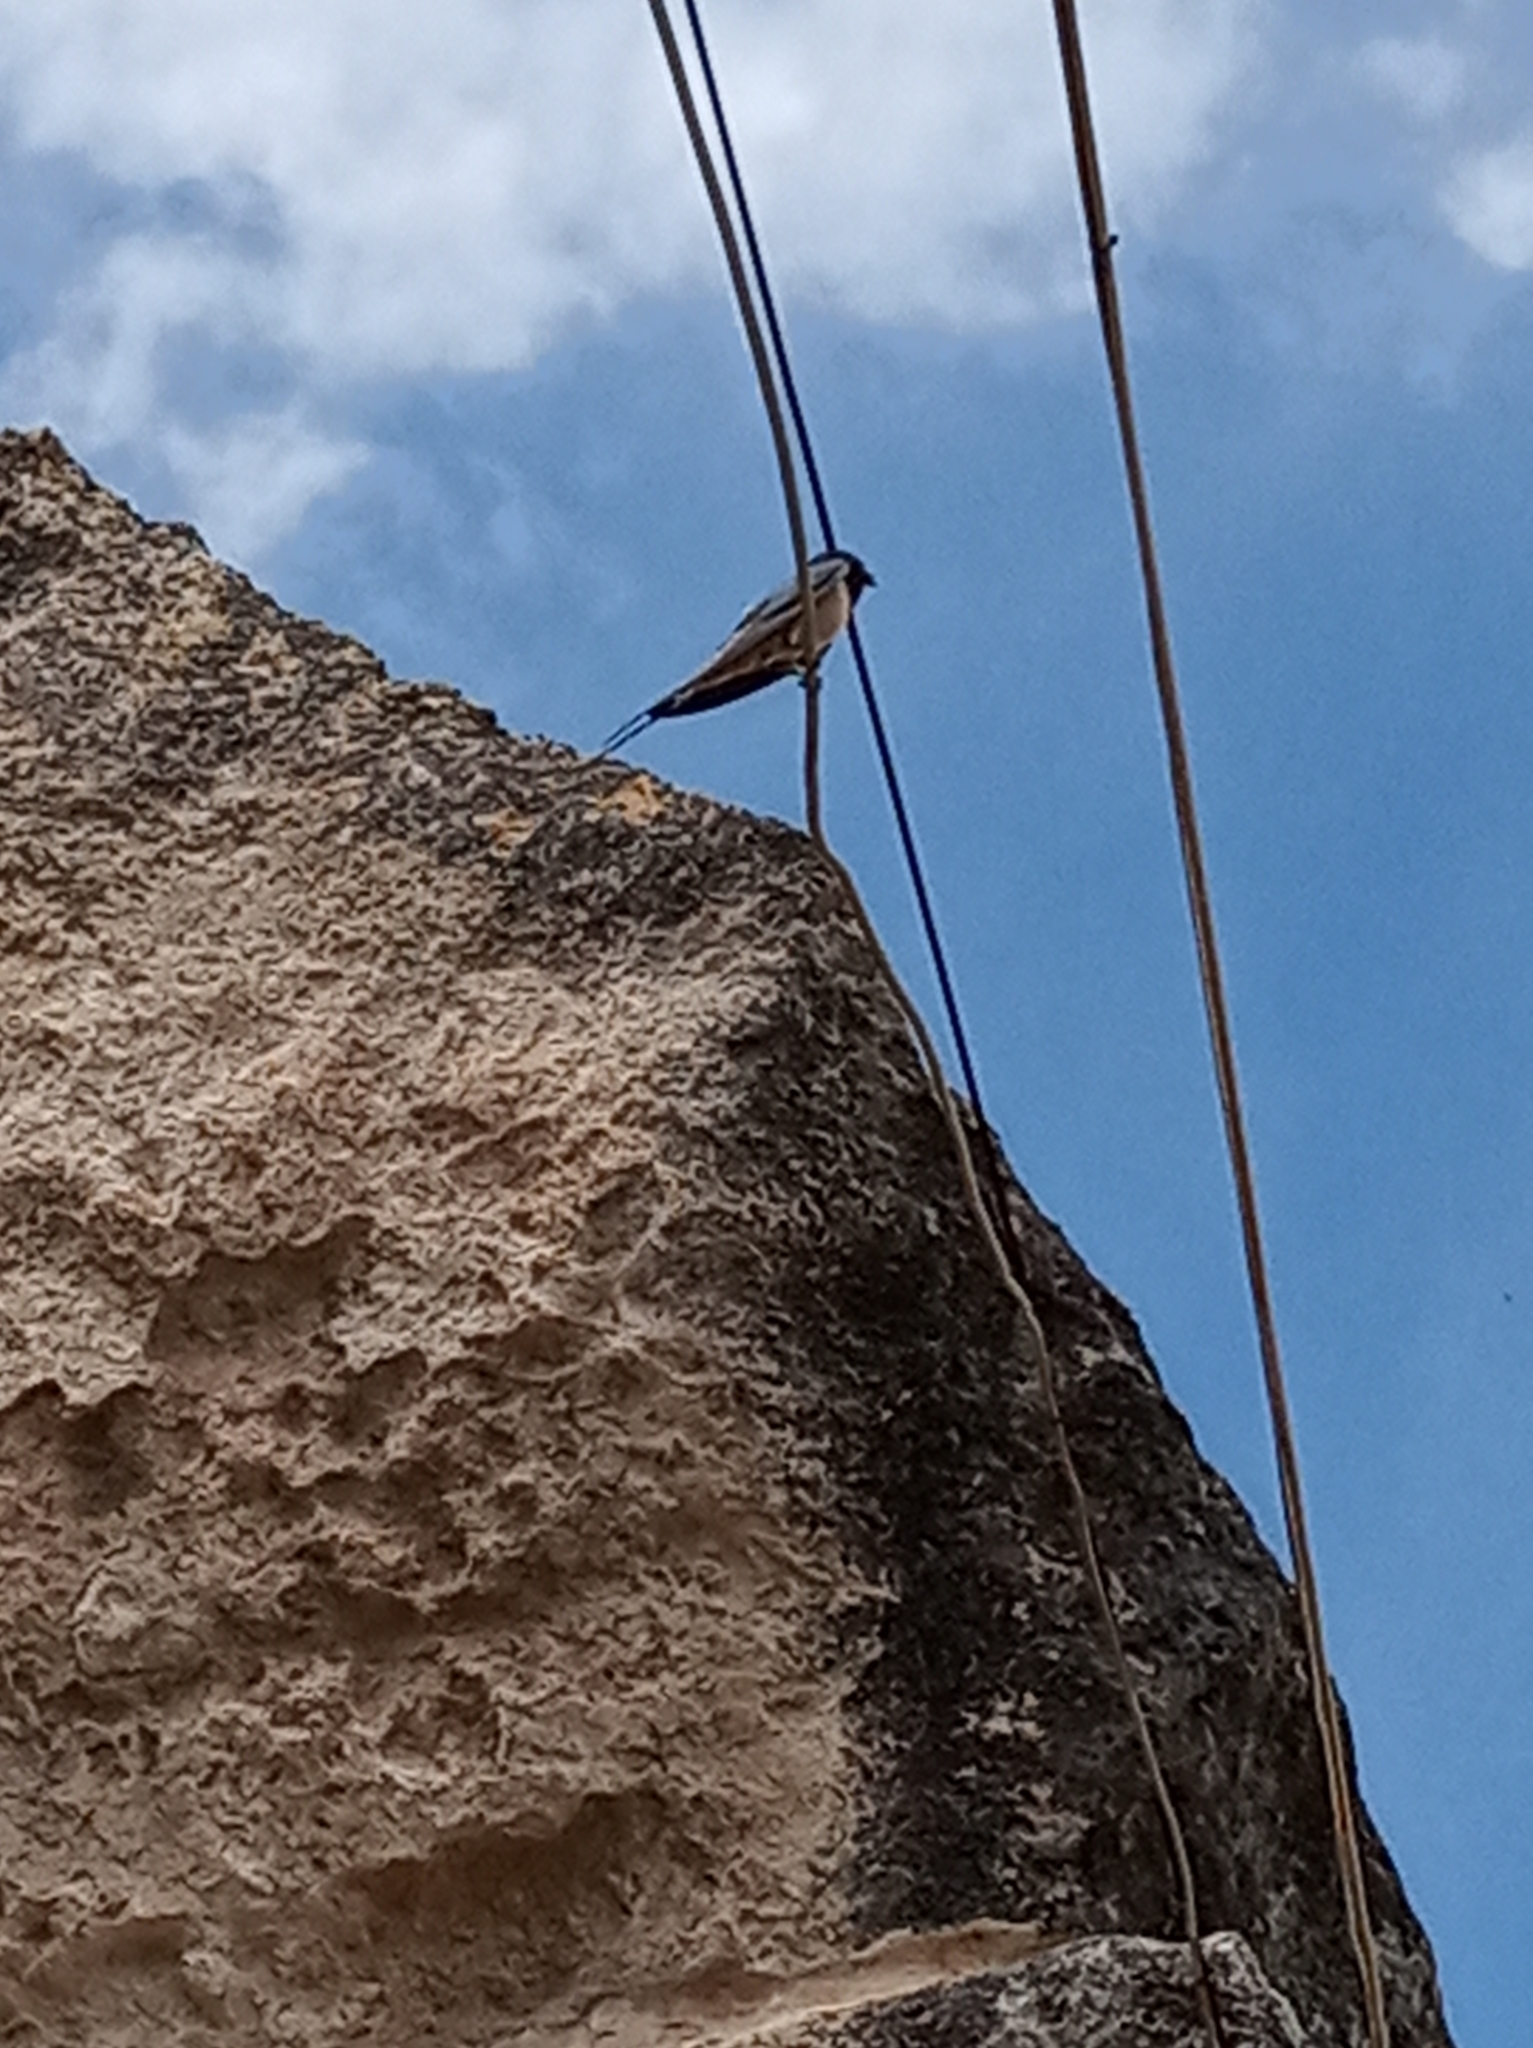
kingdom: Animalia
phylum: Chordata
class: Aves
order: Passeriformes
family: Hirundinidae
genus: Hirundo
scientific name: Hirundo rustica
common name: Barn swallow
